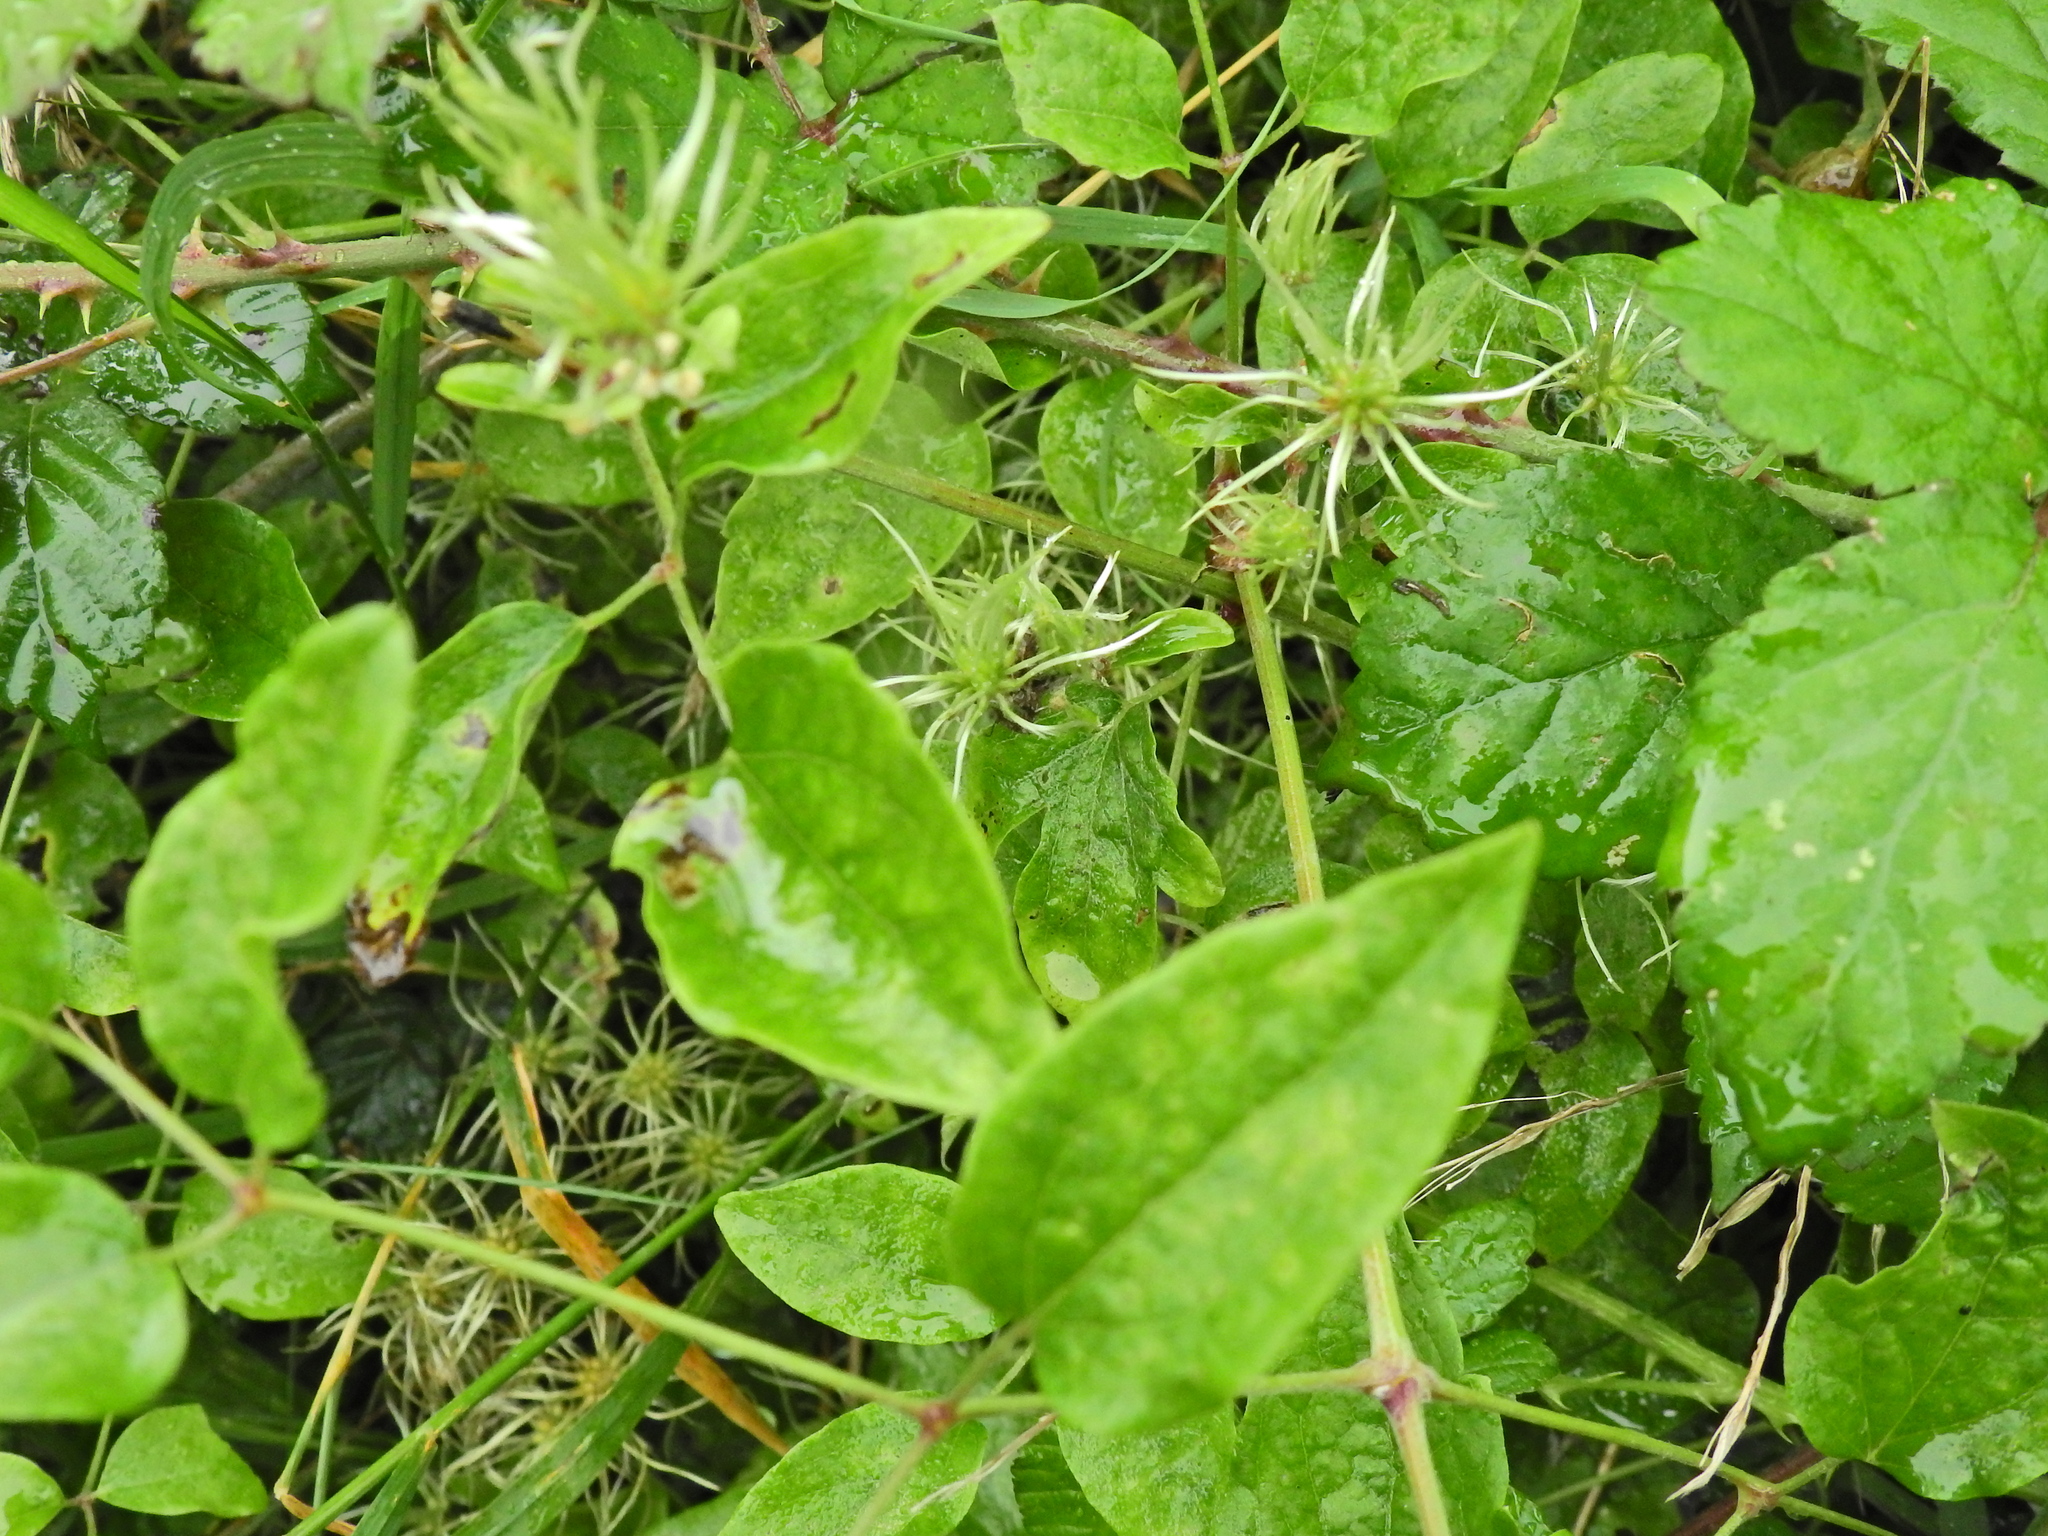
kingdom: Plantae
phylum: Tracheophyta
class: Magnoliopsida
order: Ranunculales
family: Ranunculaceae
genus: Clematis
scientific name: Clematis vitalba
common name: Evergreen clematis
